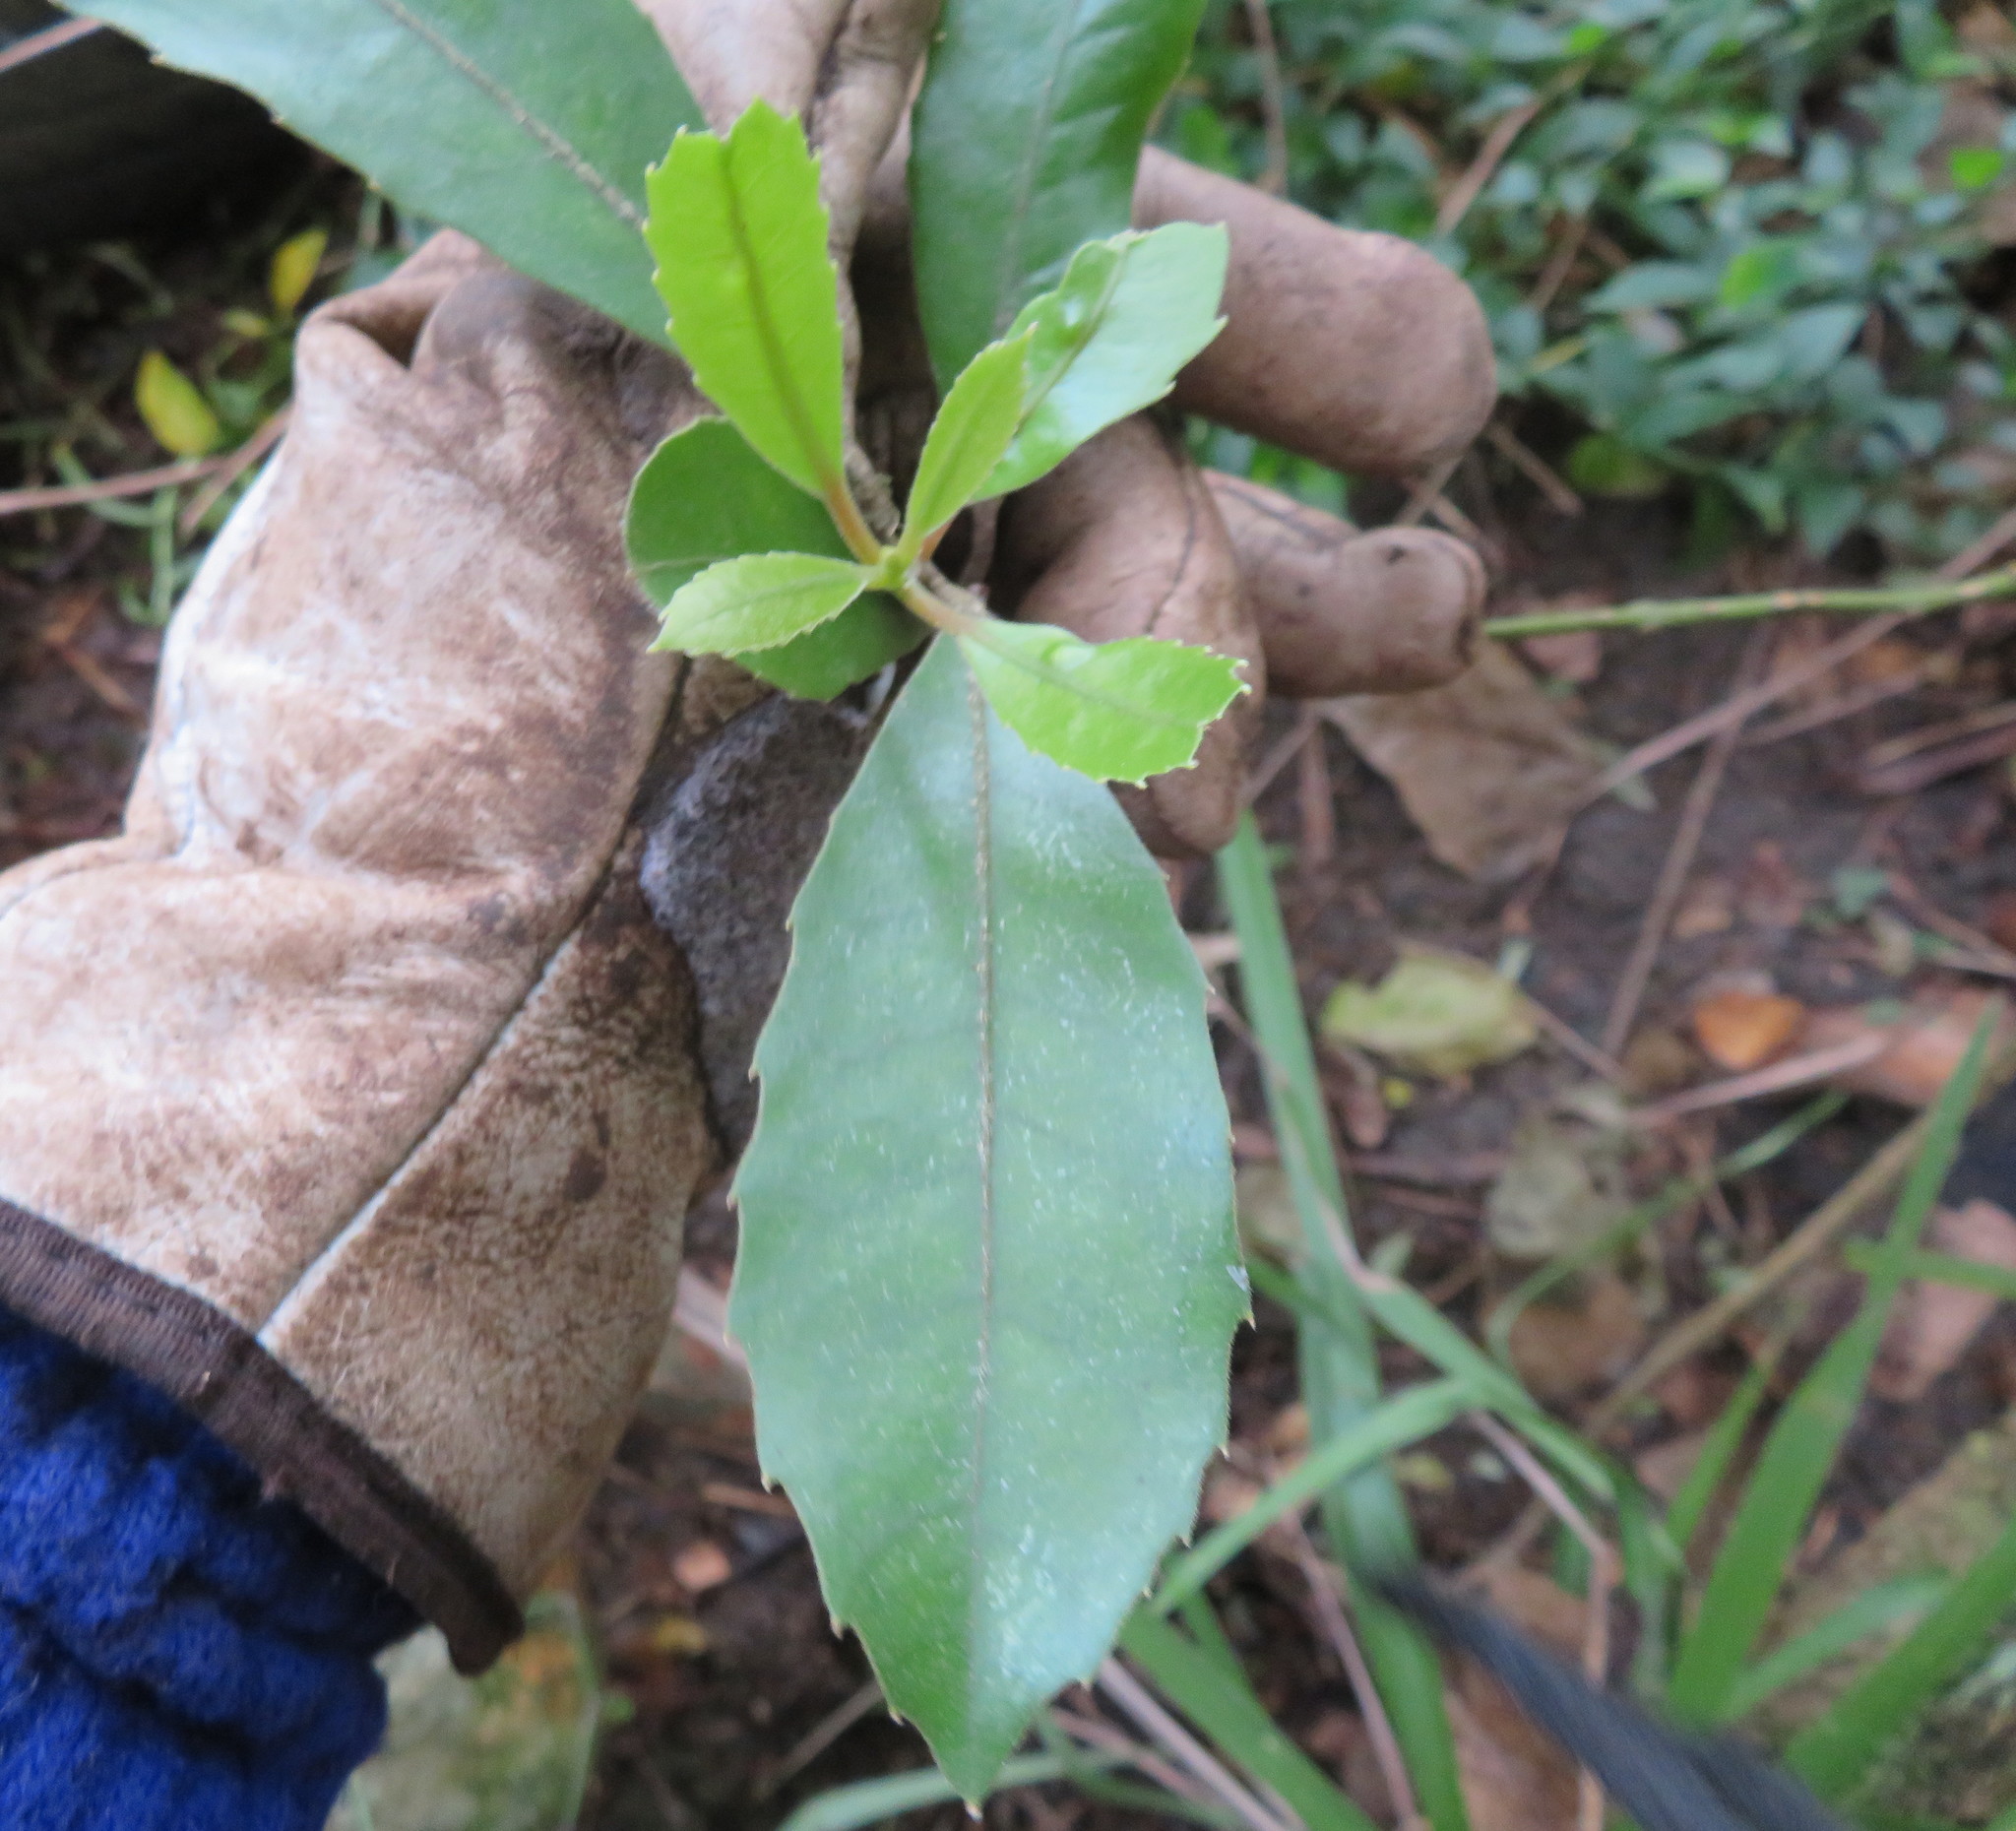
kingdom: Plantae
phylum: Tracheophyta
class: Magnoliopsida
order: Laurales
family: Monimiaceae
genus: Hedycarya
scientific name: Hedycarya arborea
